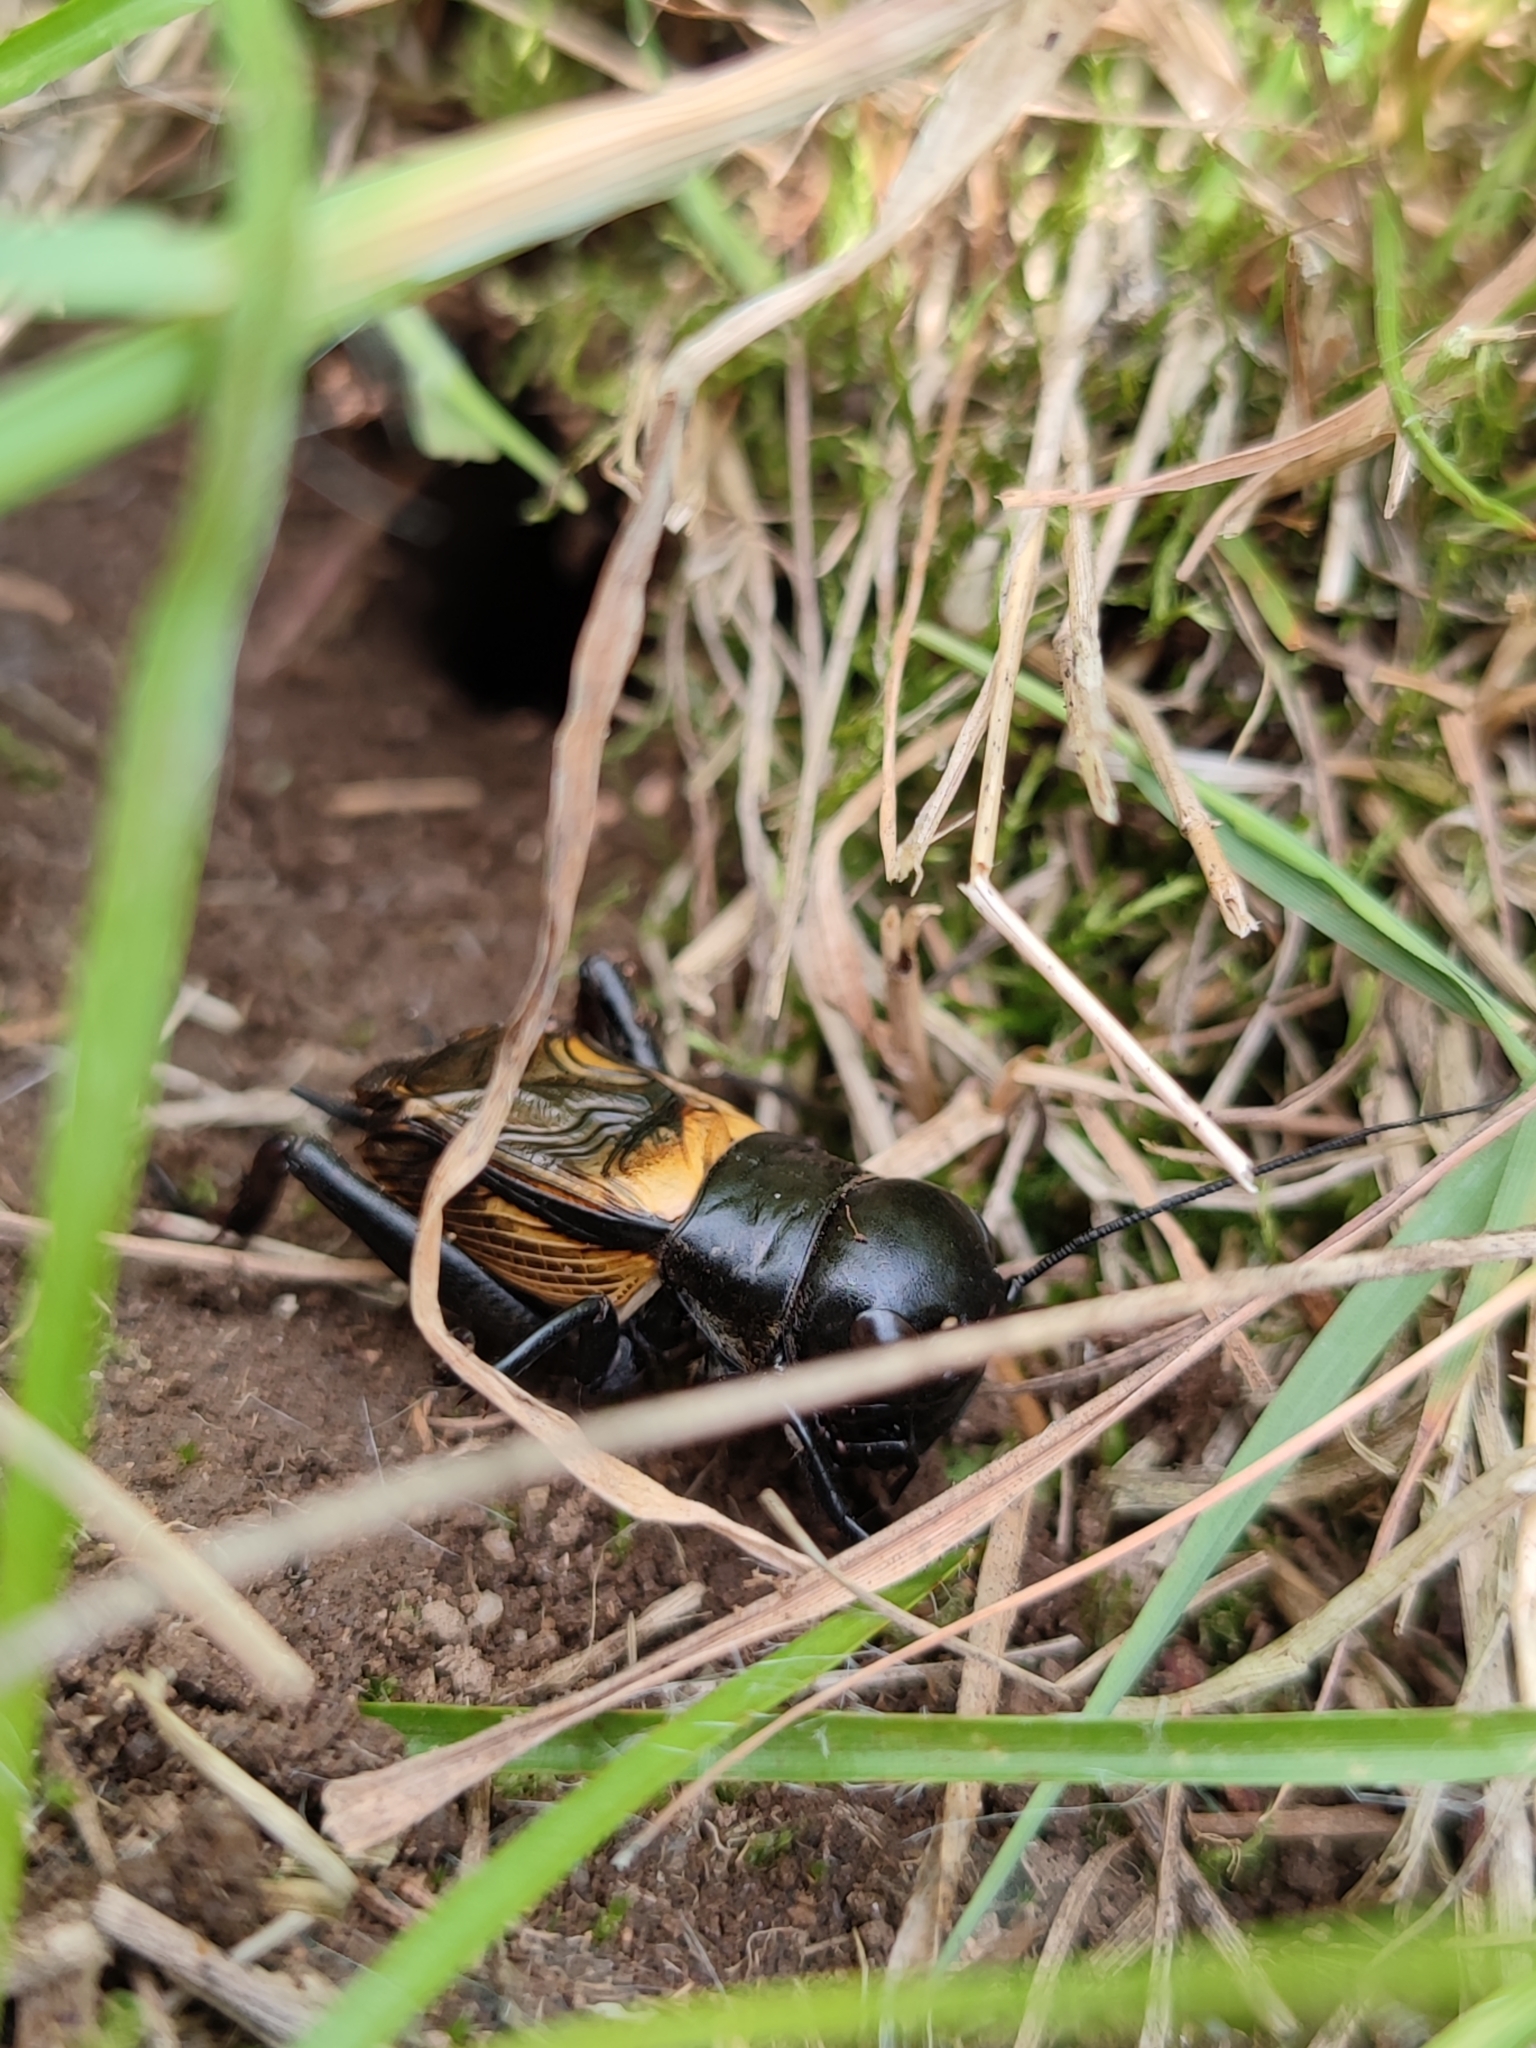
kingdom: Animalia
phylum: Arthropoda
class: Insecta
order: Orthoptera
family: Gryllidae
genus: Gryllus
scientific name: Gryllus campestris
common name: Field cricket
